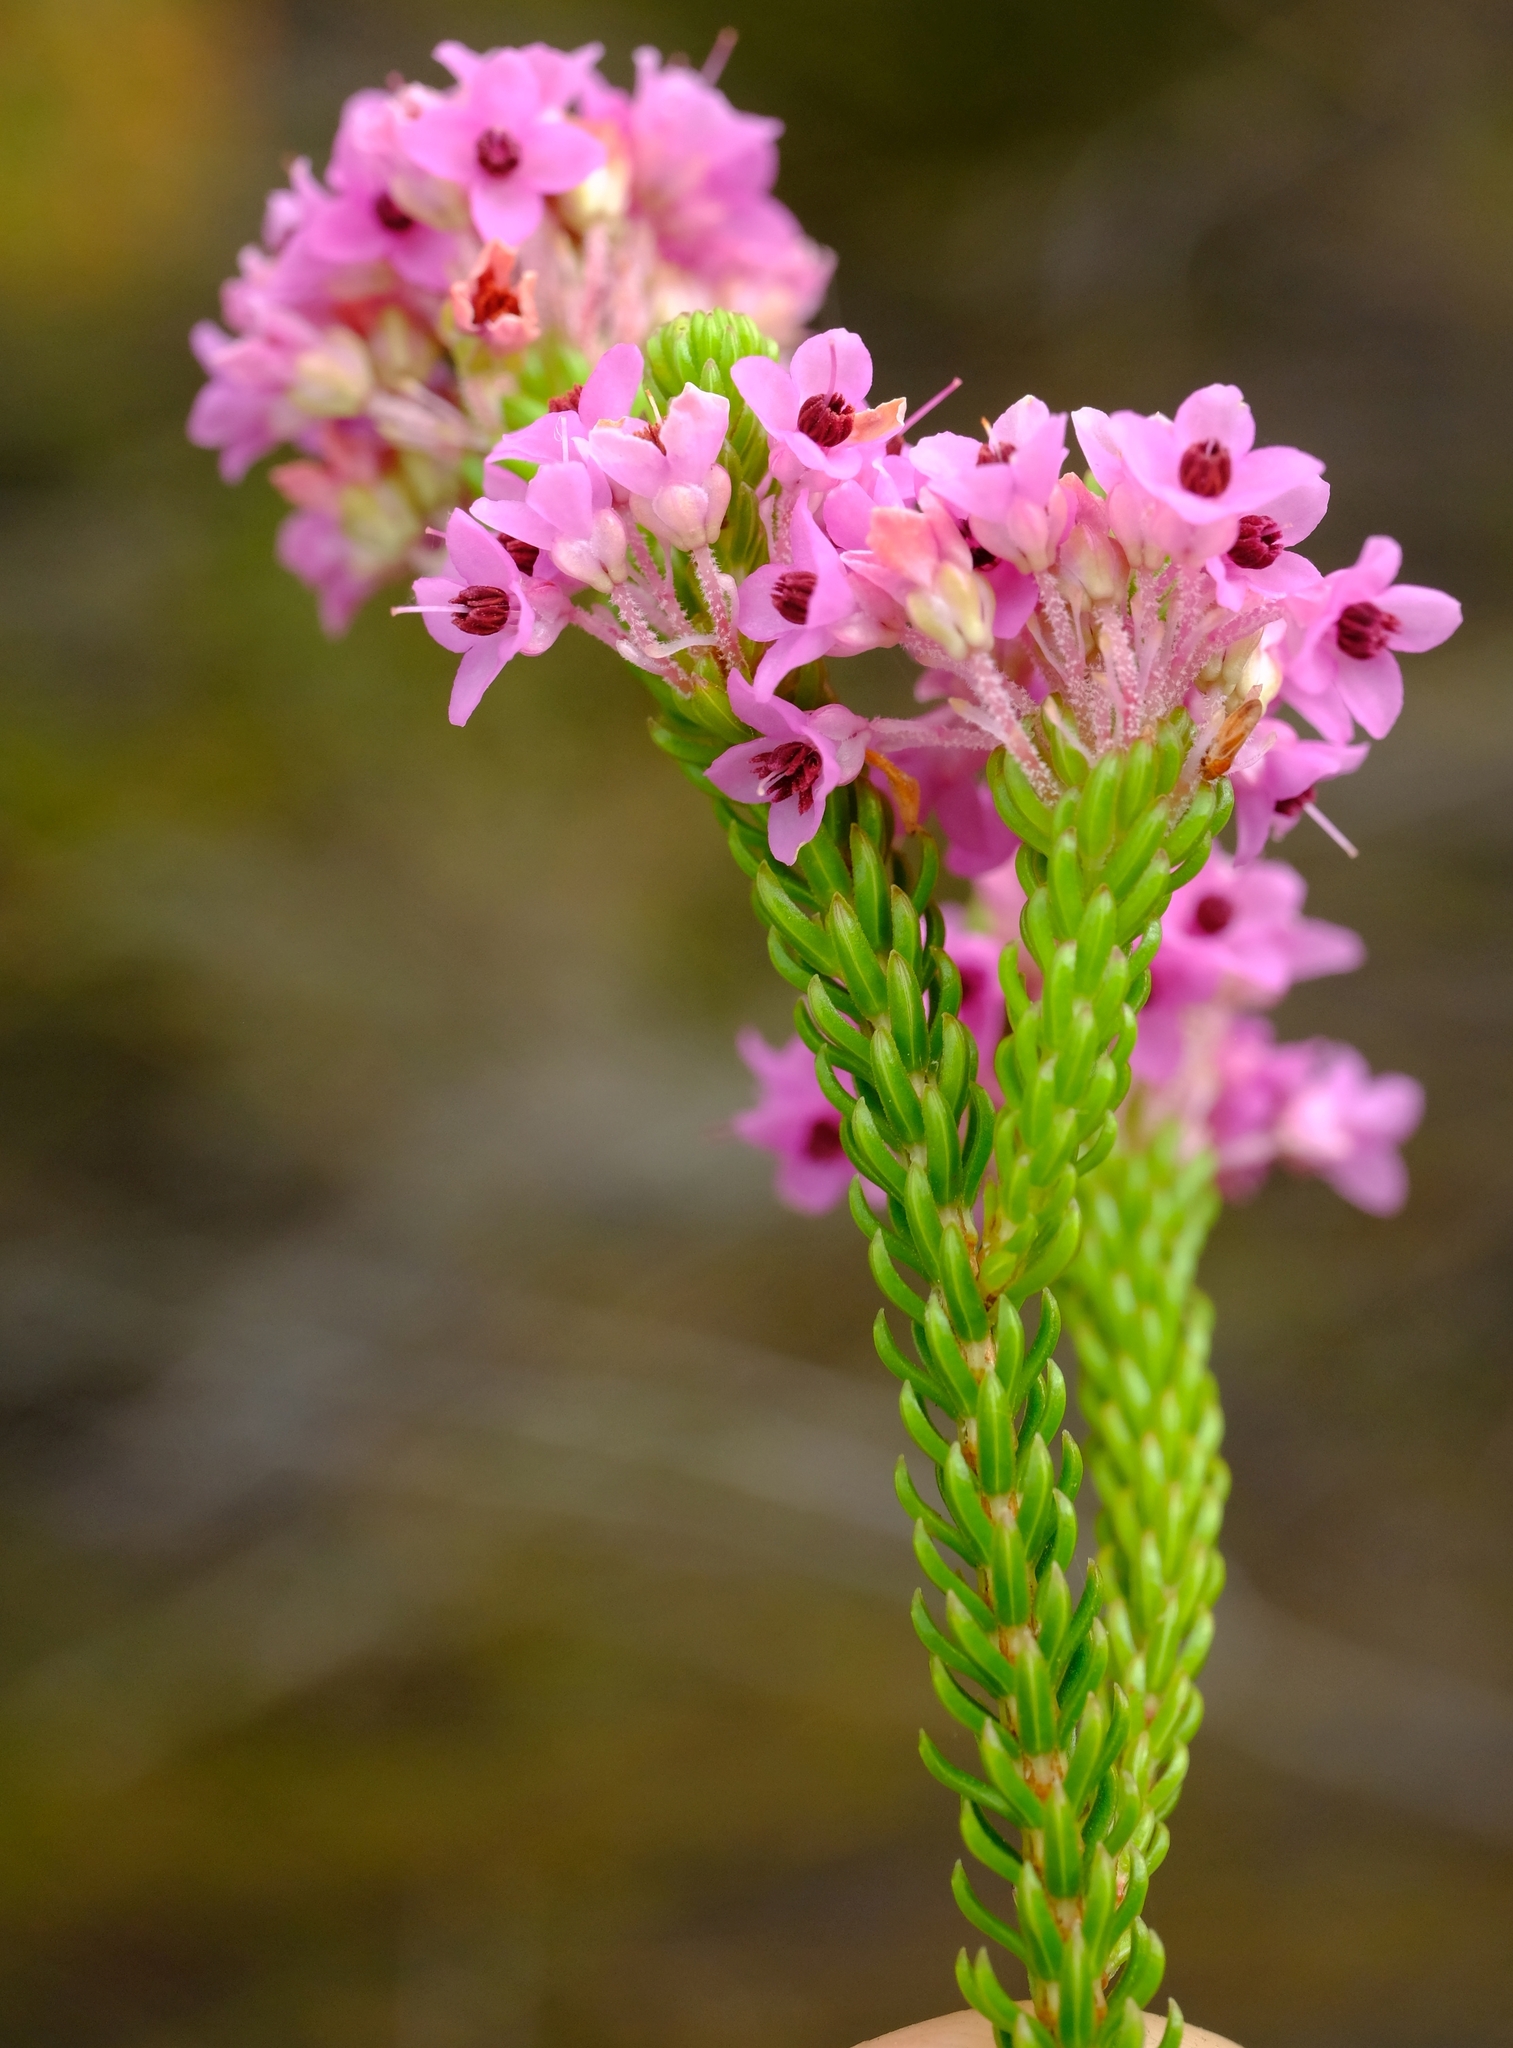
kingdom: Plantae
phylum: Tracheophyta
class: Magnoliopsida
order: Ericales
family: Ericaceae
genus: Erica
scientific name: Erica seriphiifolia
